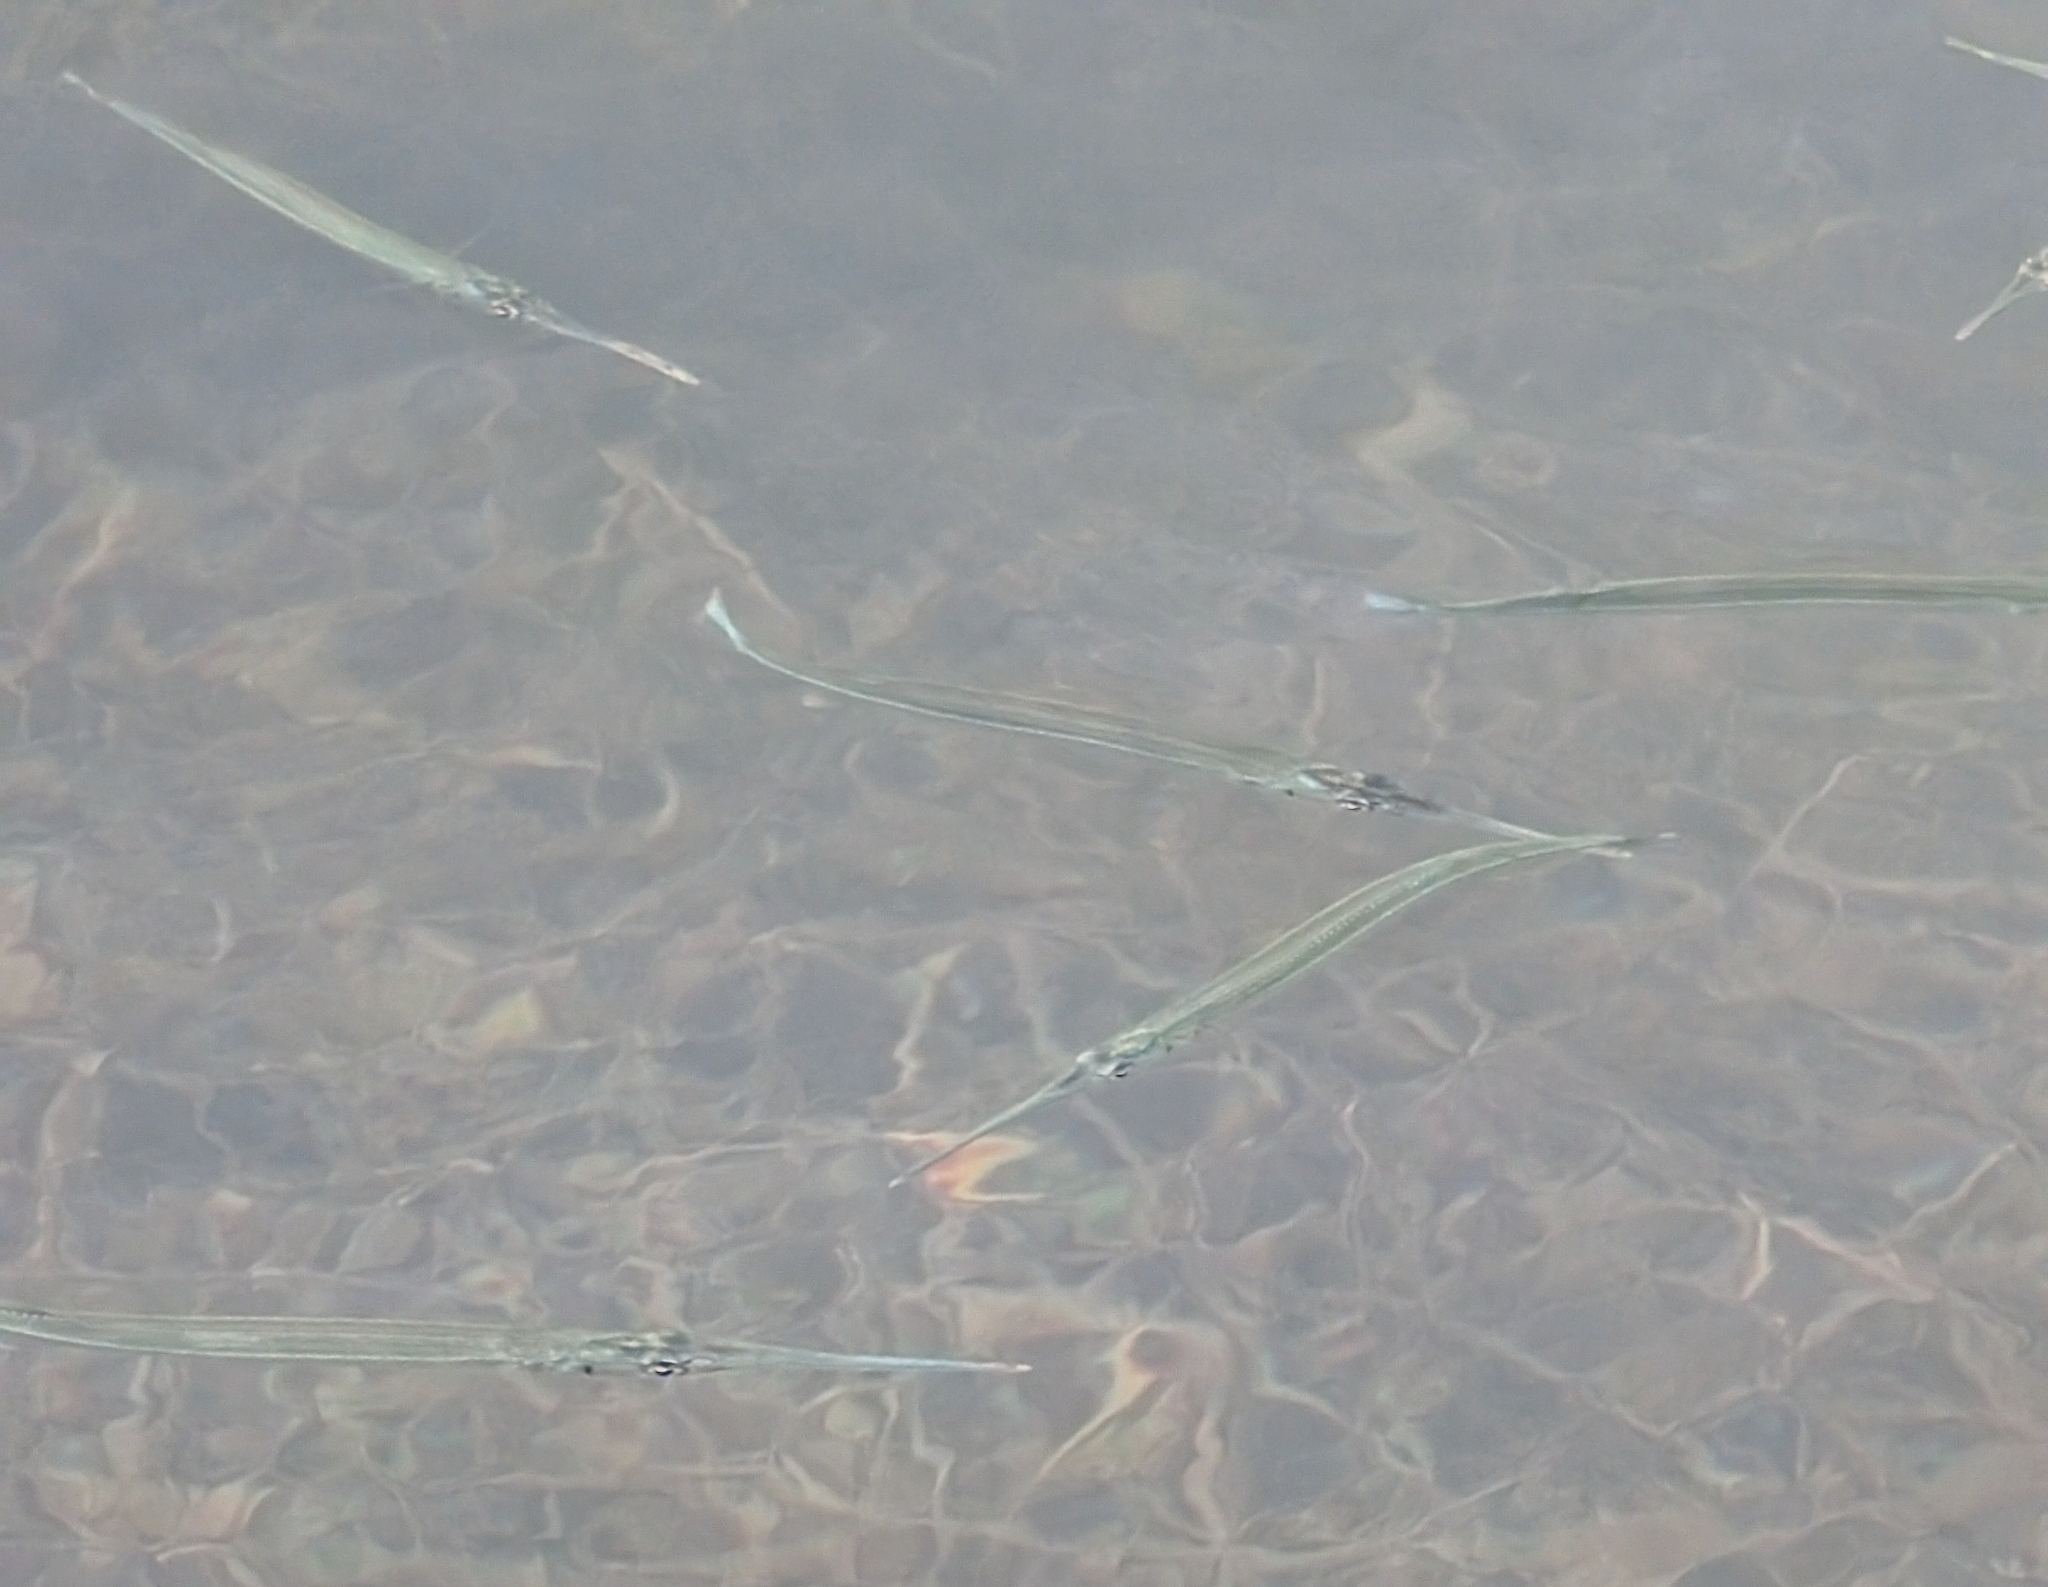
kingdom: Animalia
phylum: Chordata
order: Beloniformes
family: Belonidae
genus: Strongylura
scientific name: Strongylura notata
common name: Redfin needlefish
